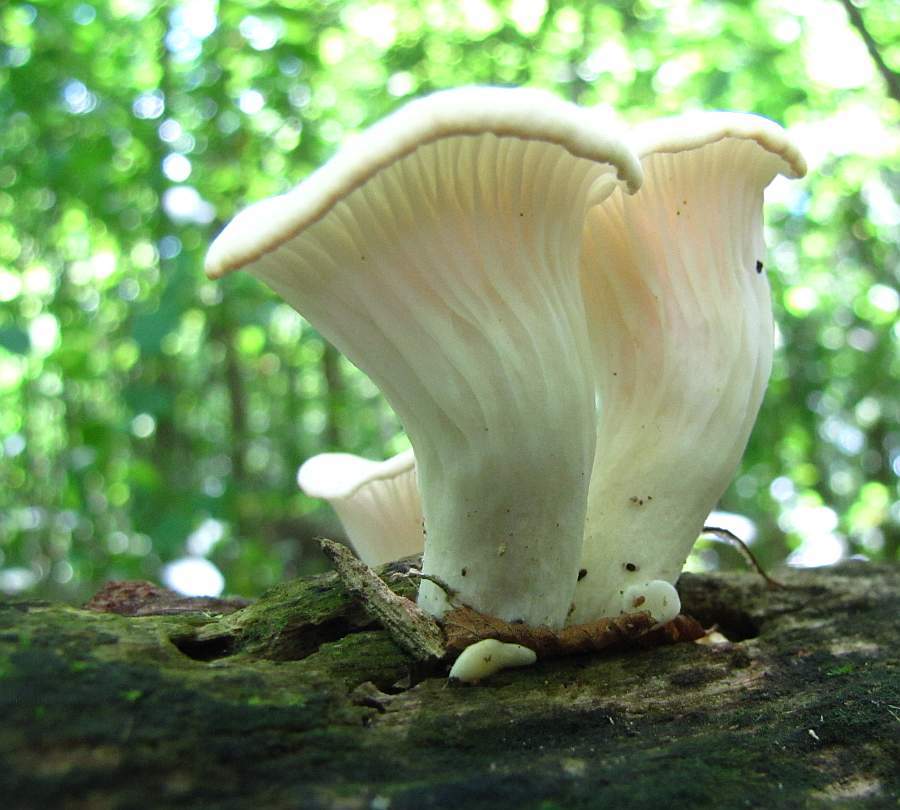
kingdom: Fungi
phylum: Basidiomycota
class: Agaricomycetes
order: Agaricales
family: Pleurotaceae
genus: Pleurotus
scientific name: Pleurotus pulmonarius
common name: Pale oyster
